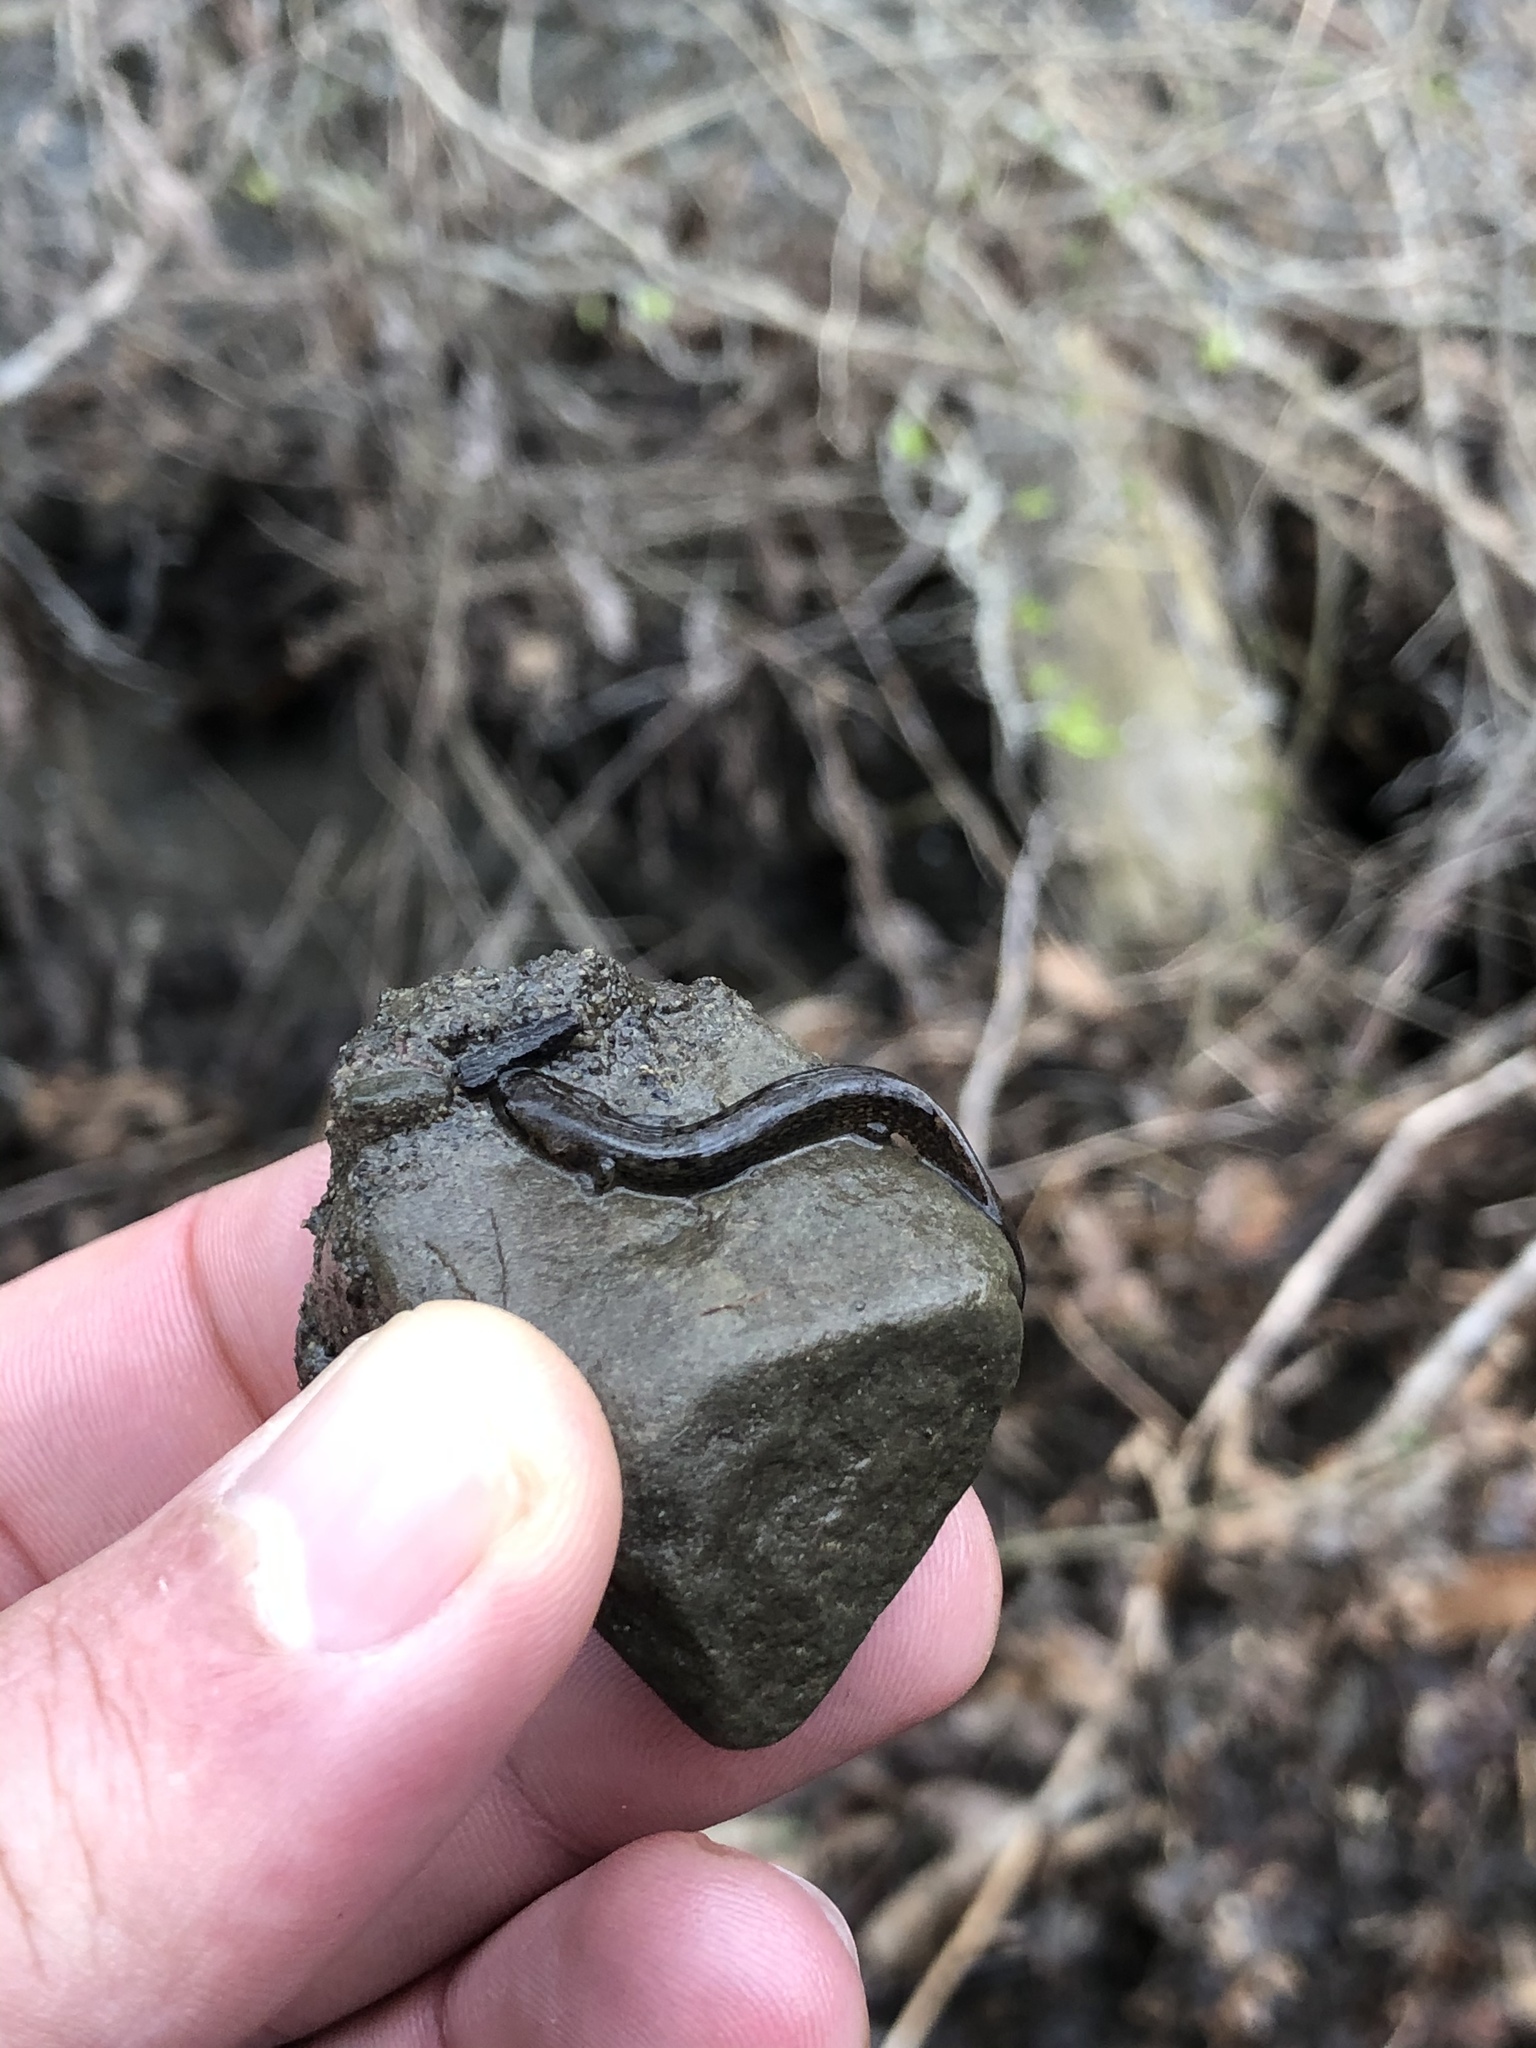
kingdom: Animalia
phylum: Chordata
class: Amphibia
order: Caudata
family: Plethodontidae
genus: Eurycea
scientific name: Eurycea bislineata
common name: Northern two-lined salamander
